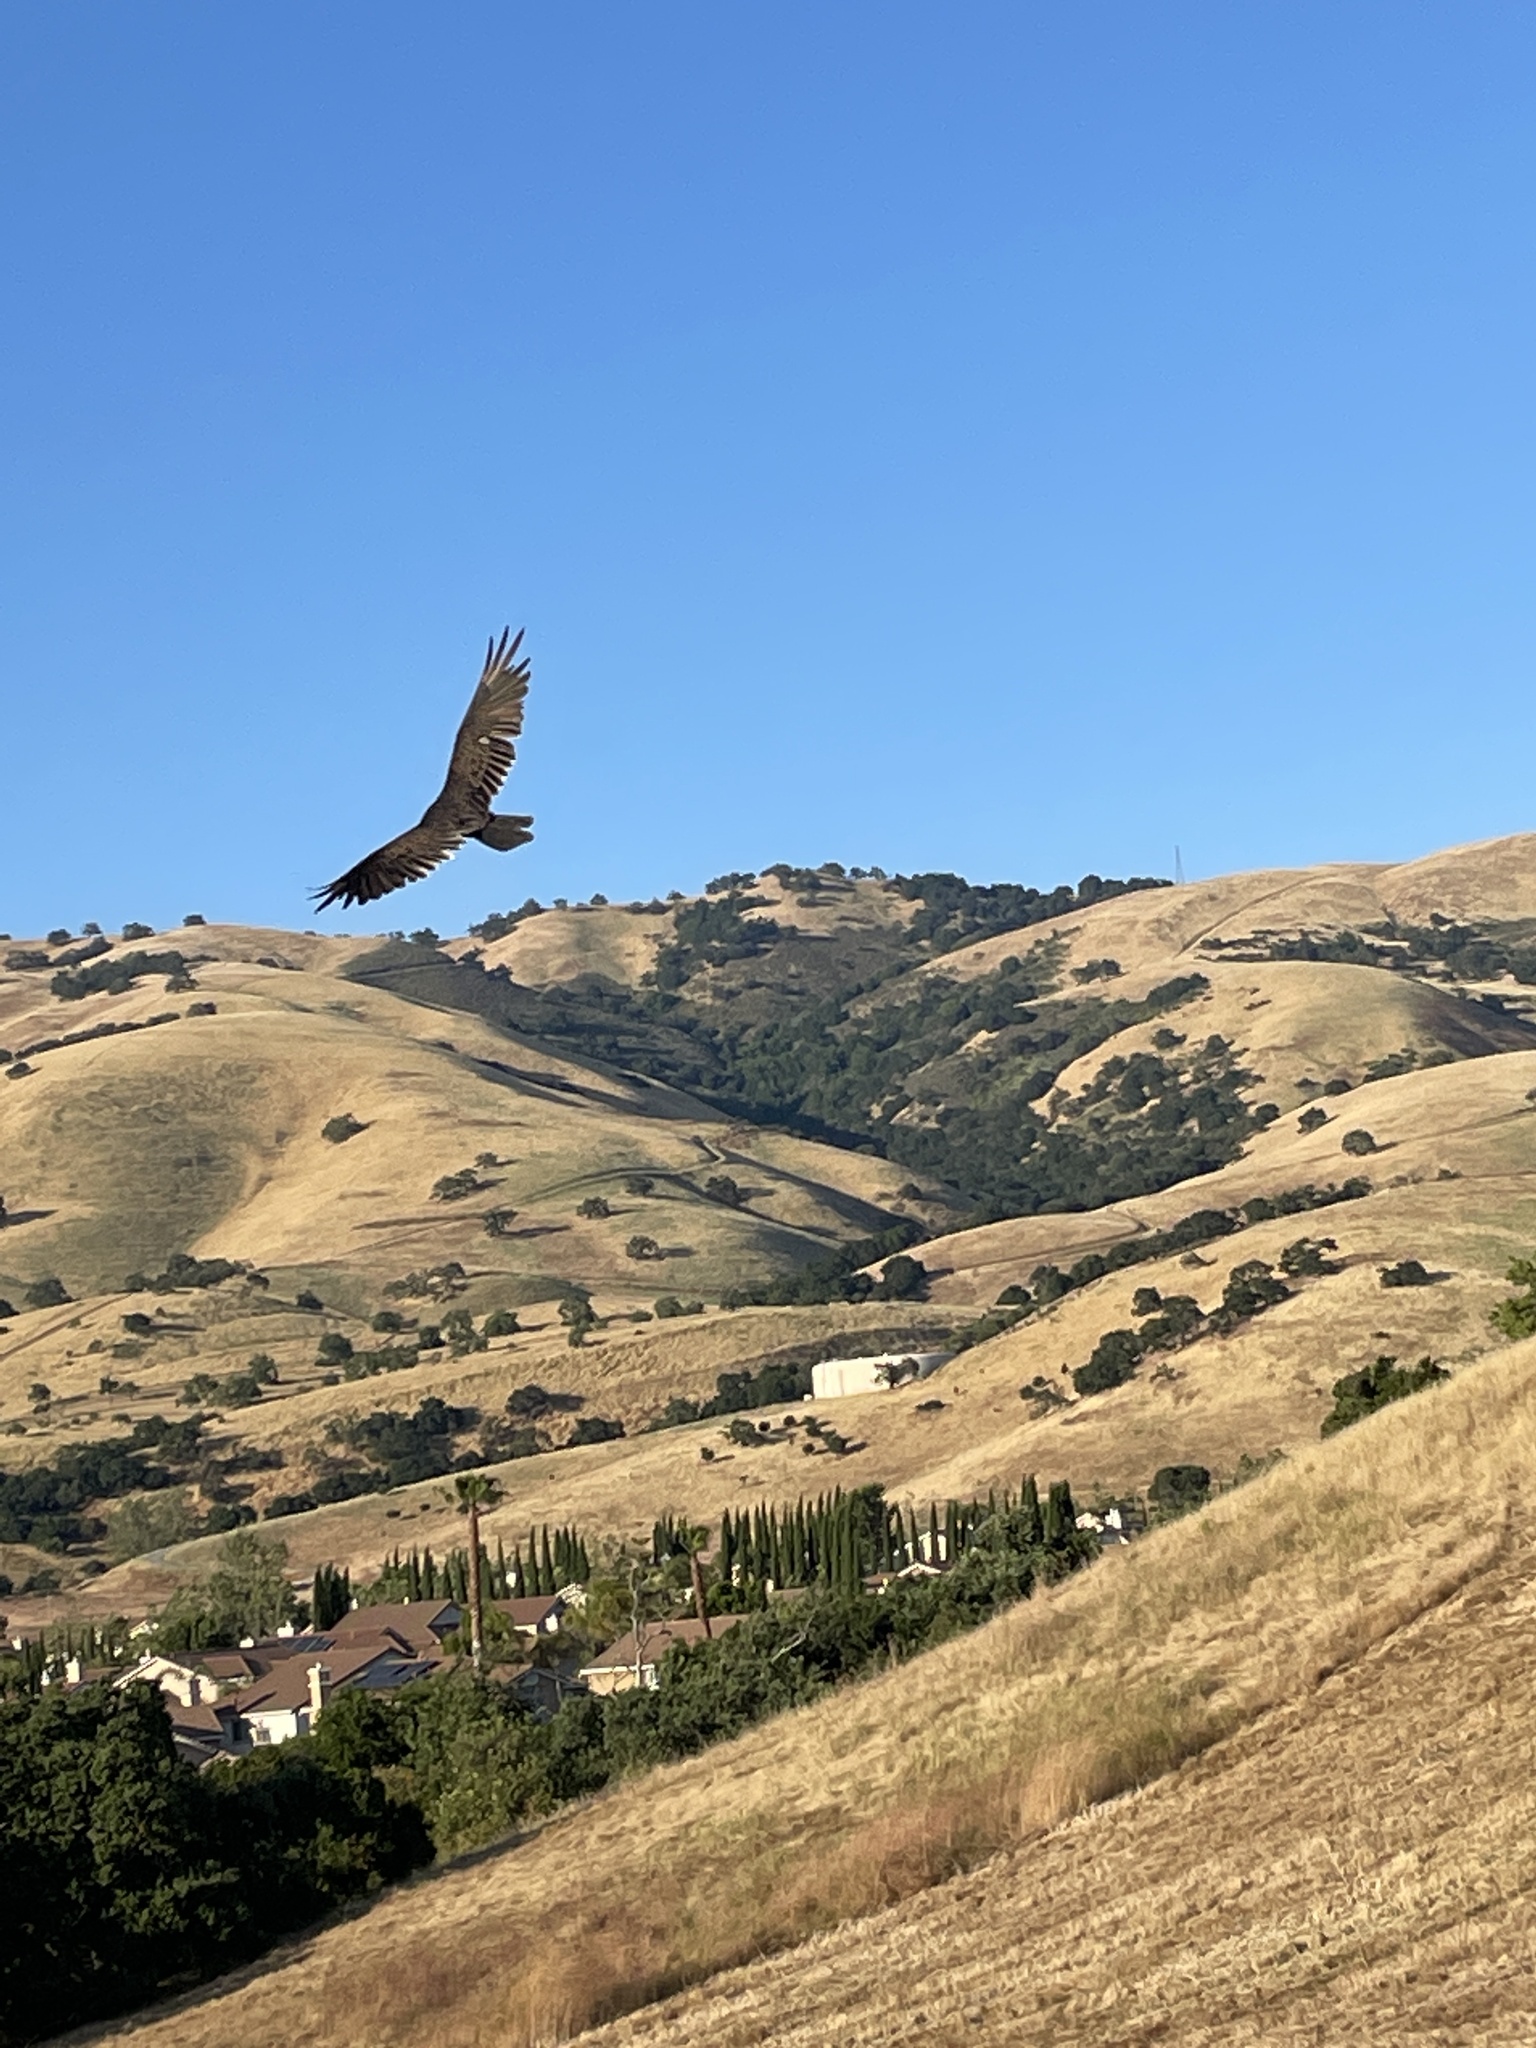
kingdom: Animalia
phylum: Chordata
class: Aves
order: Accipitriformes
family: Cathartidae
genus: Cathartes
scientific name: Cathartes aura
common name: Turkey vulture
